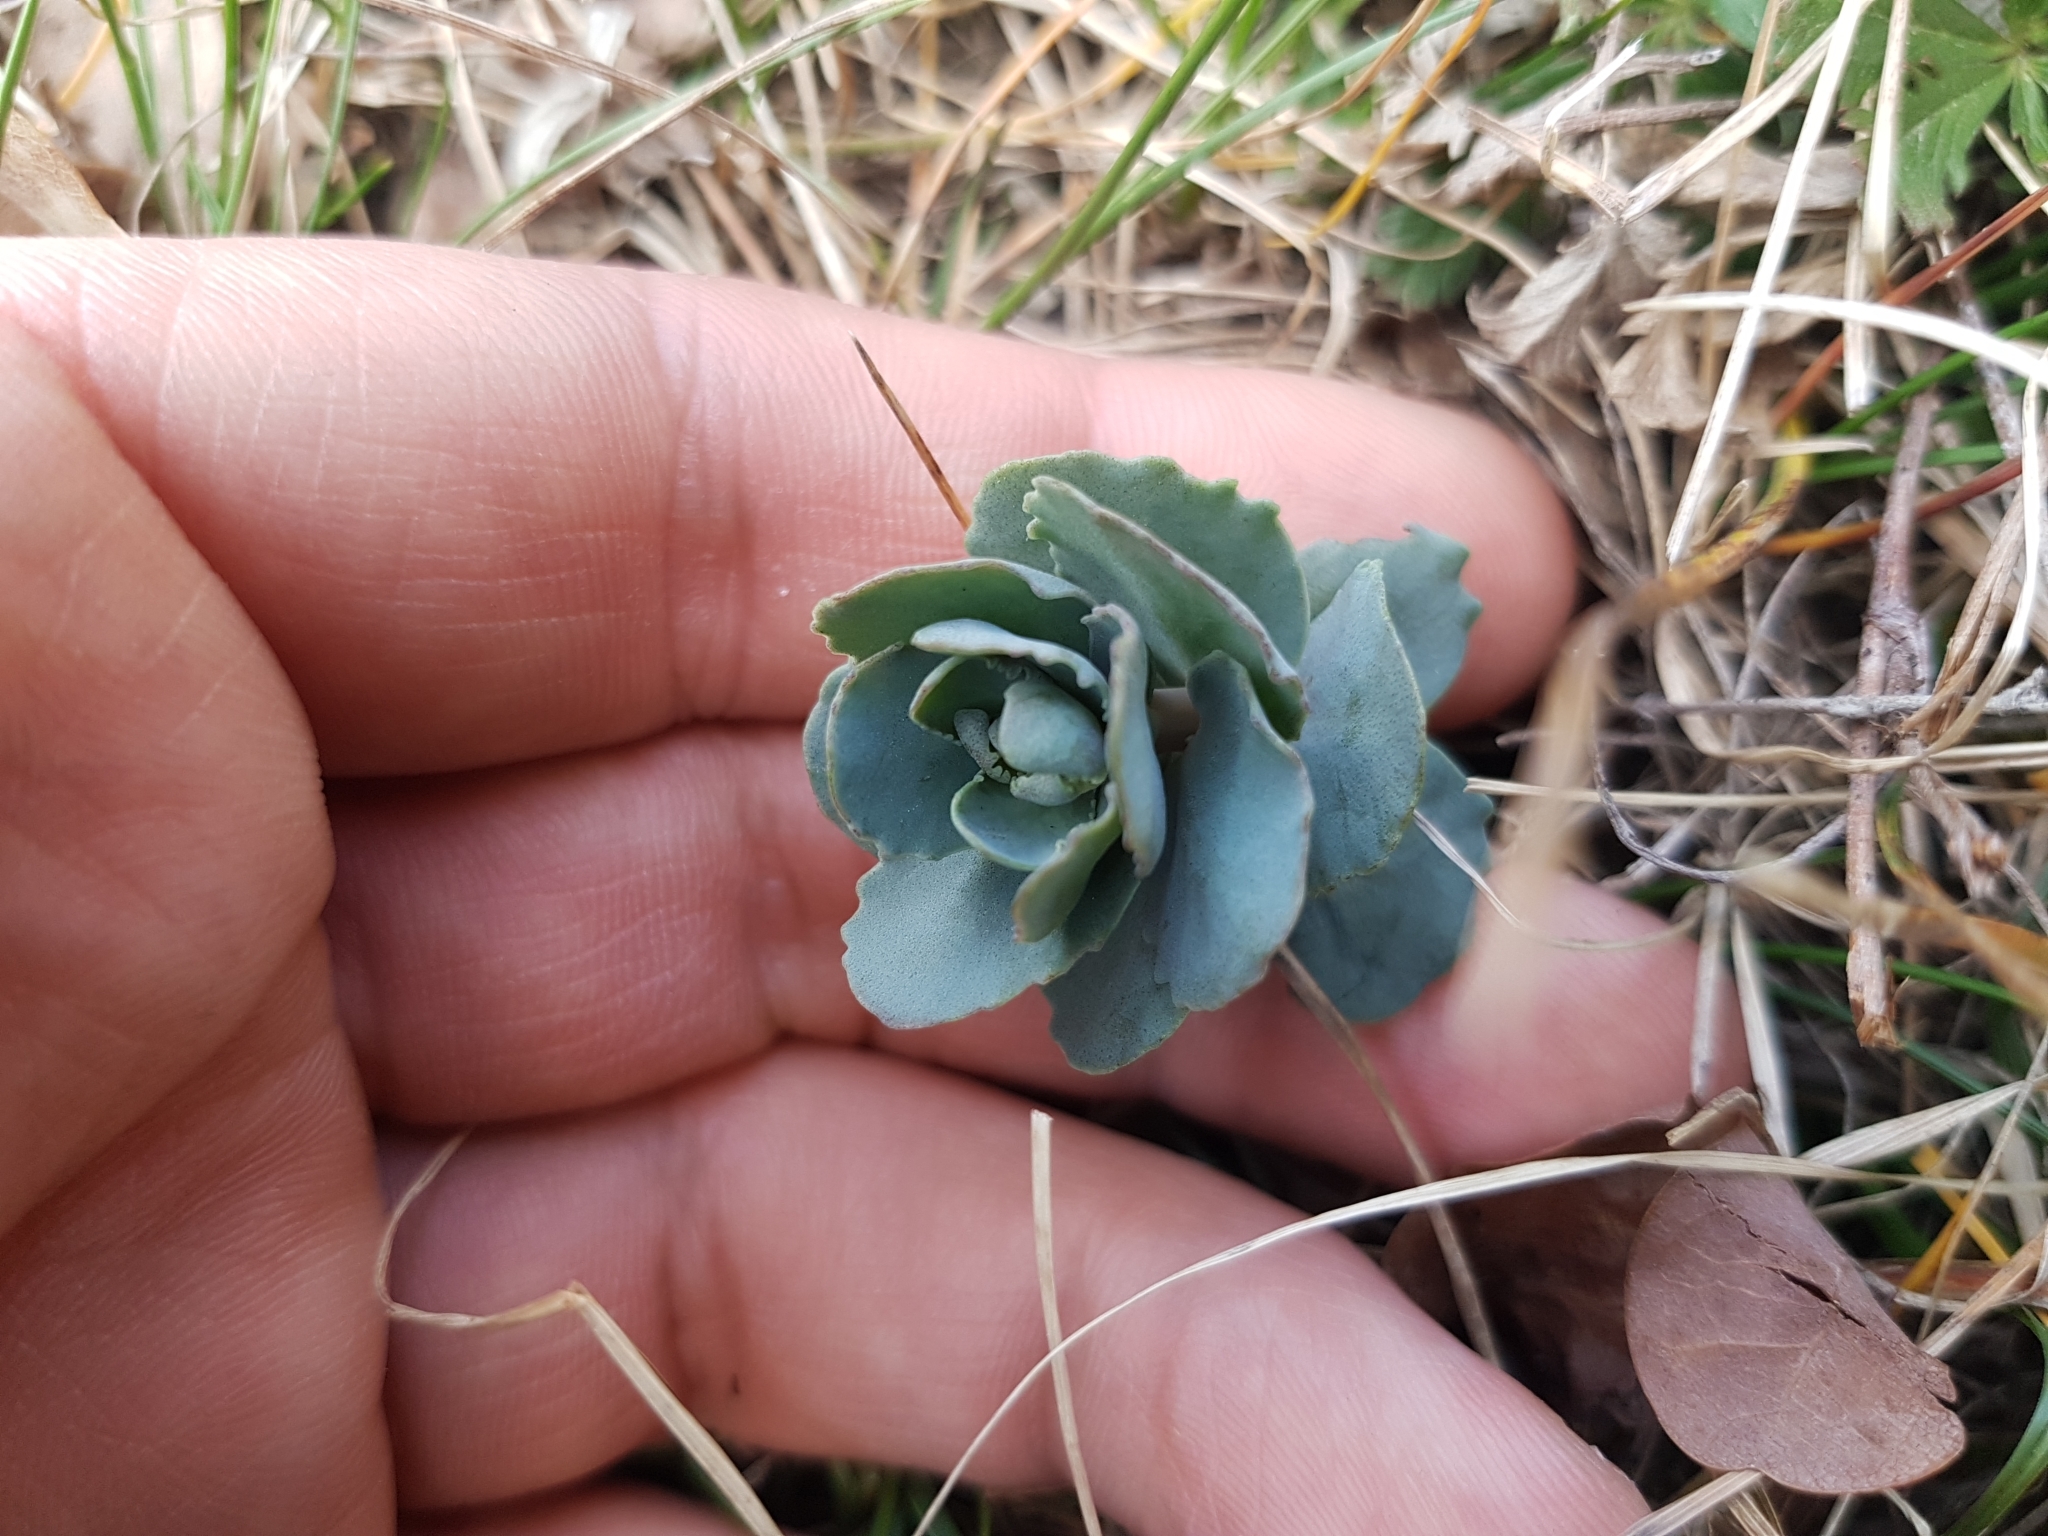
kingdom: Plantae
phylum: Tracheophyta
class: Magnoliopsida
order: Saxifragales
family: Crassulaceae
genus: Hylotelephium
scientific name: Hylotelephium telephium
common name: Live-forever
